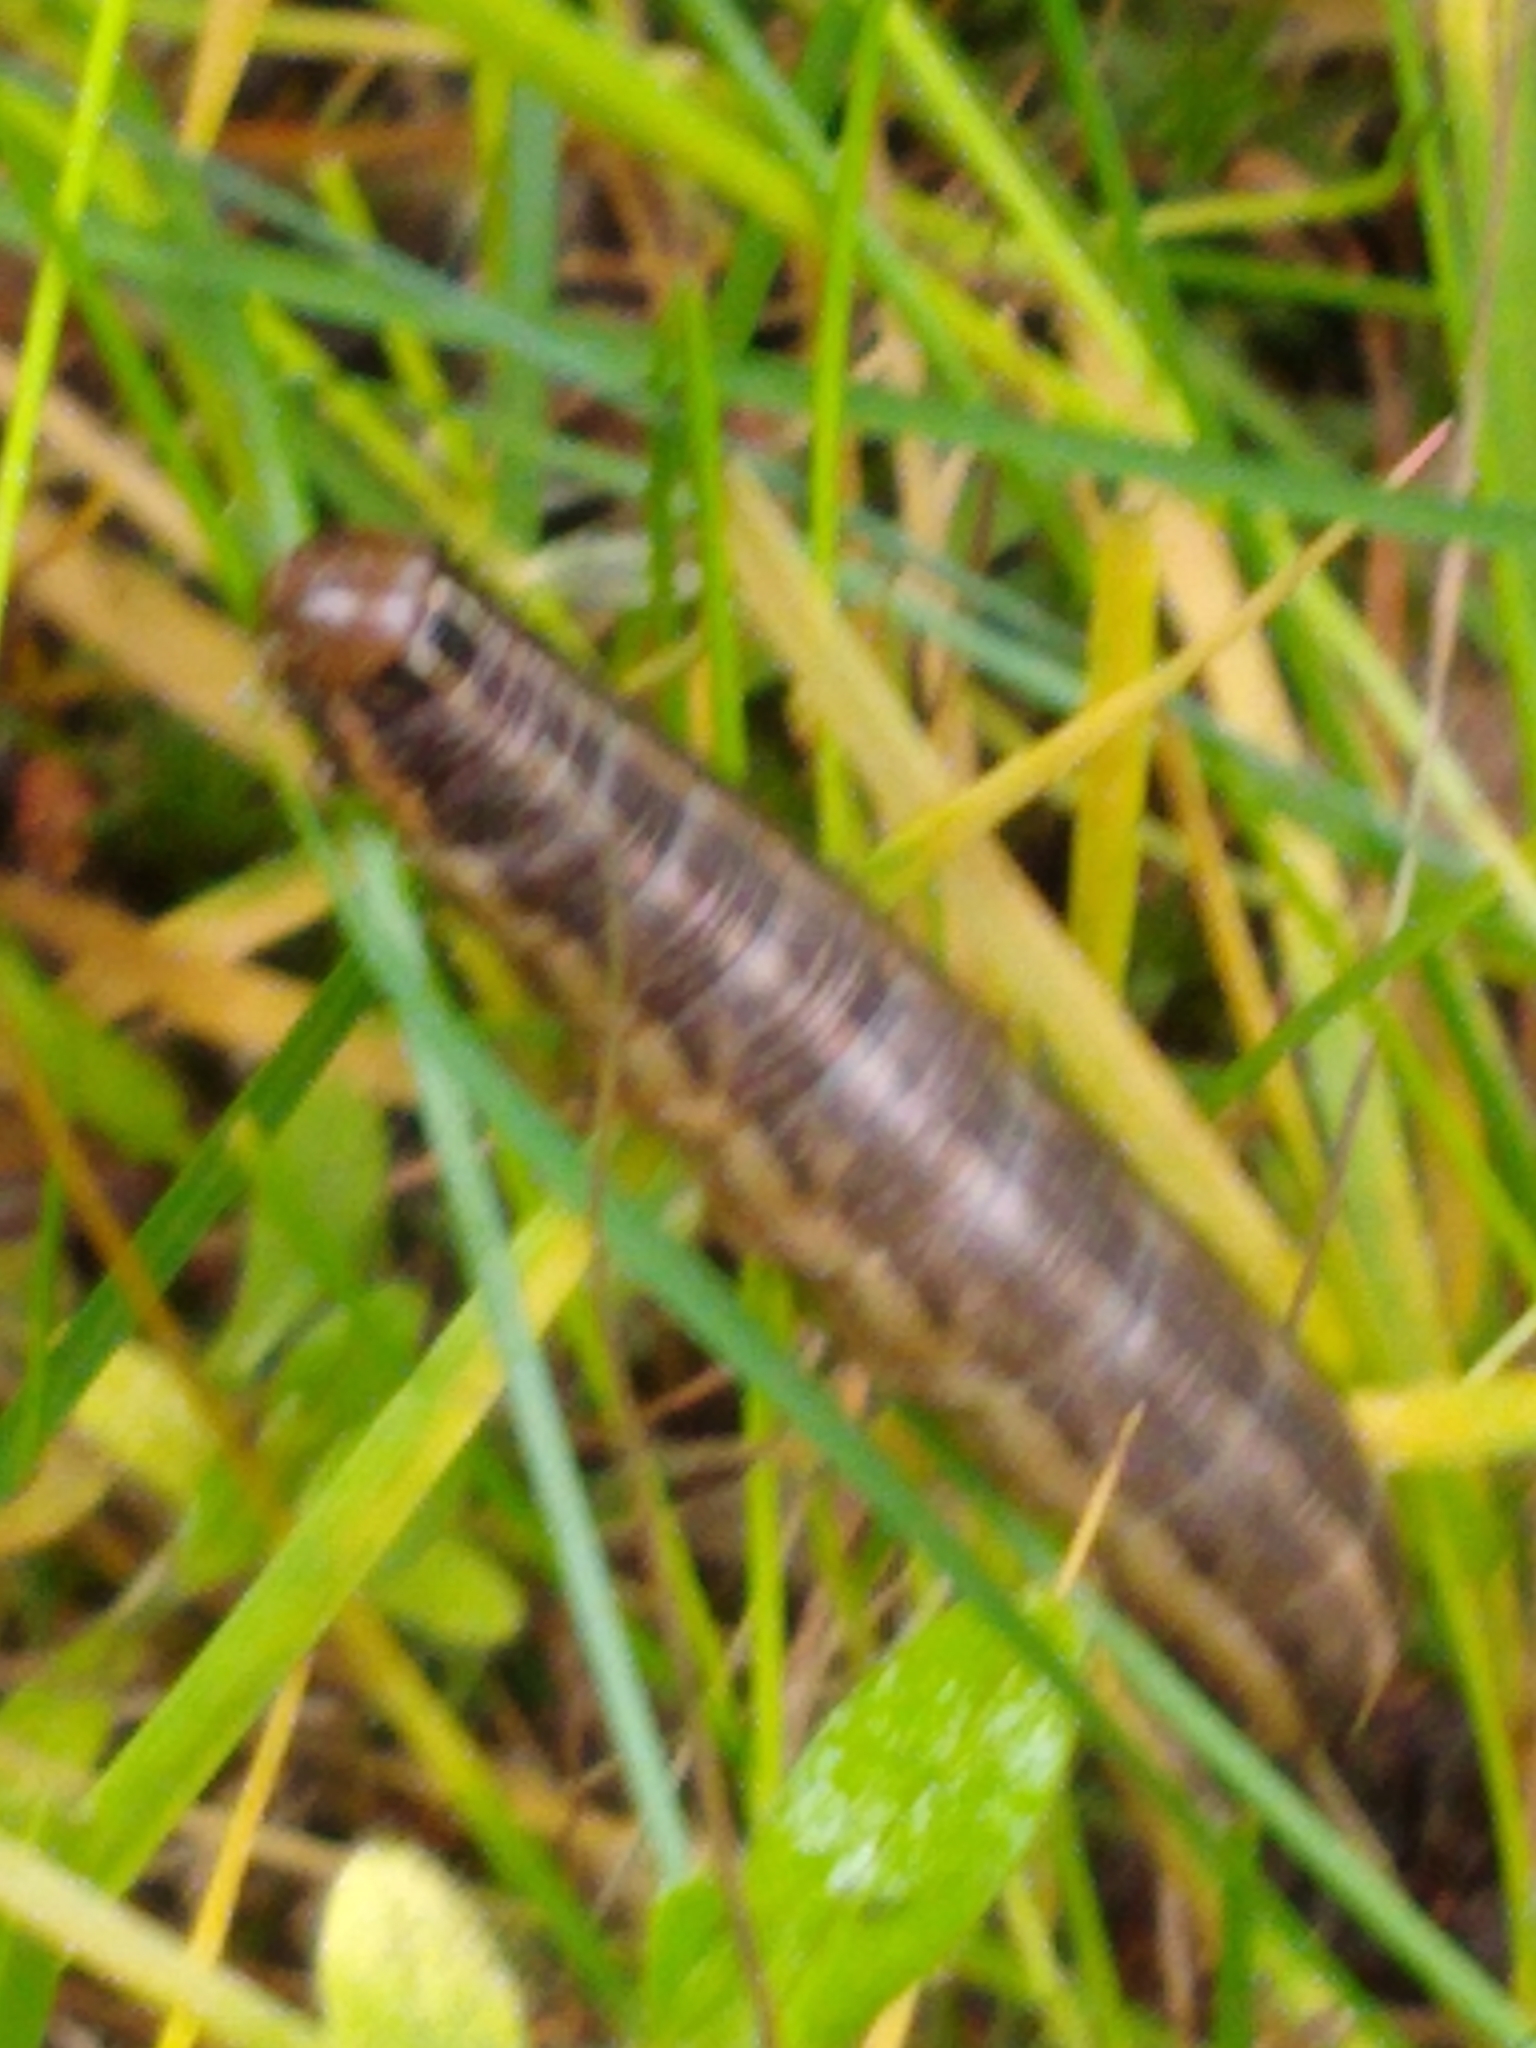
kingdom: Animalia
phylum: Arthropoda
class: Insecta
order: Lepidoptera
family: Noctuidae
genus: Nephelodes
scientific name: Nephelodes minians
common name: Bronzed cutworm
